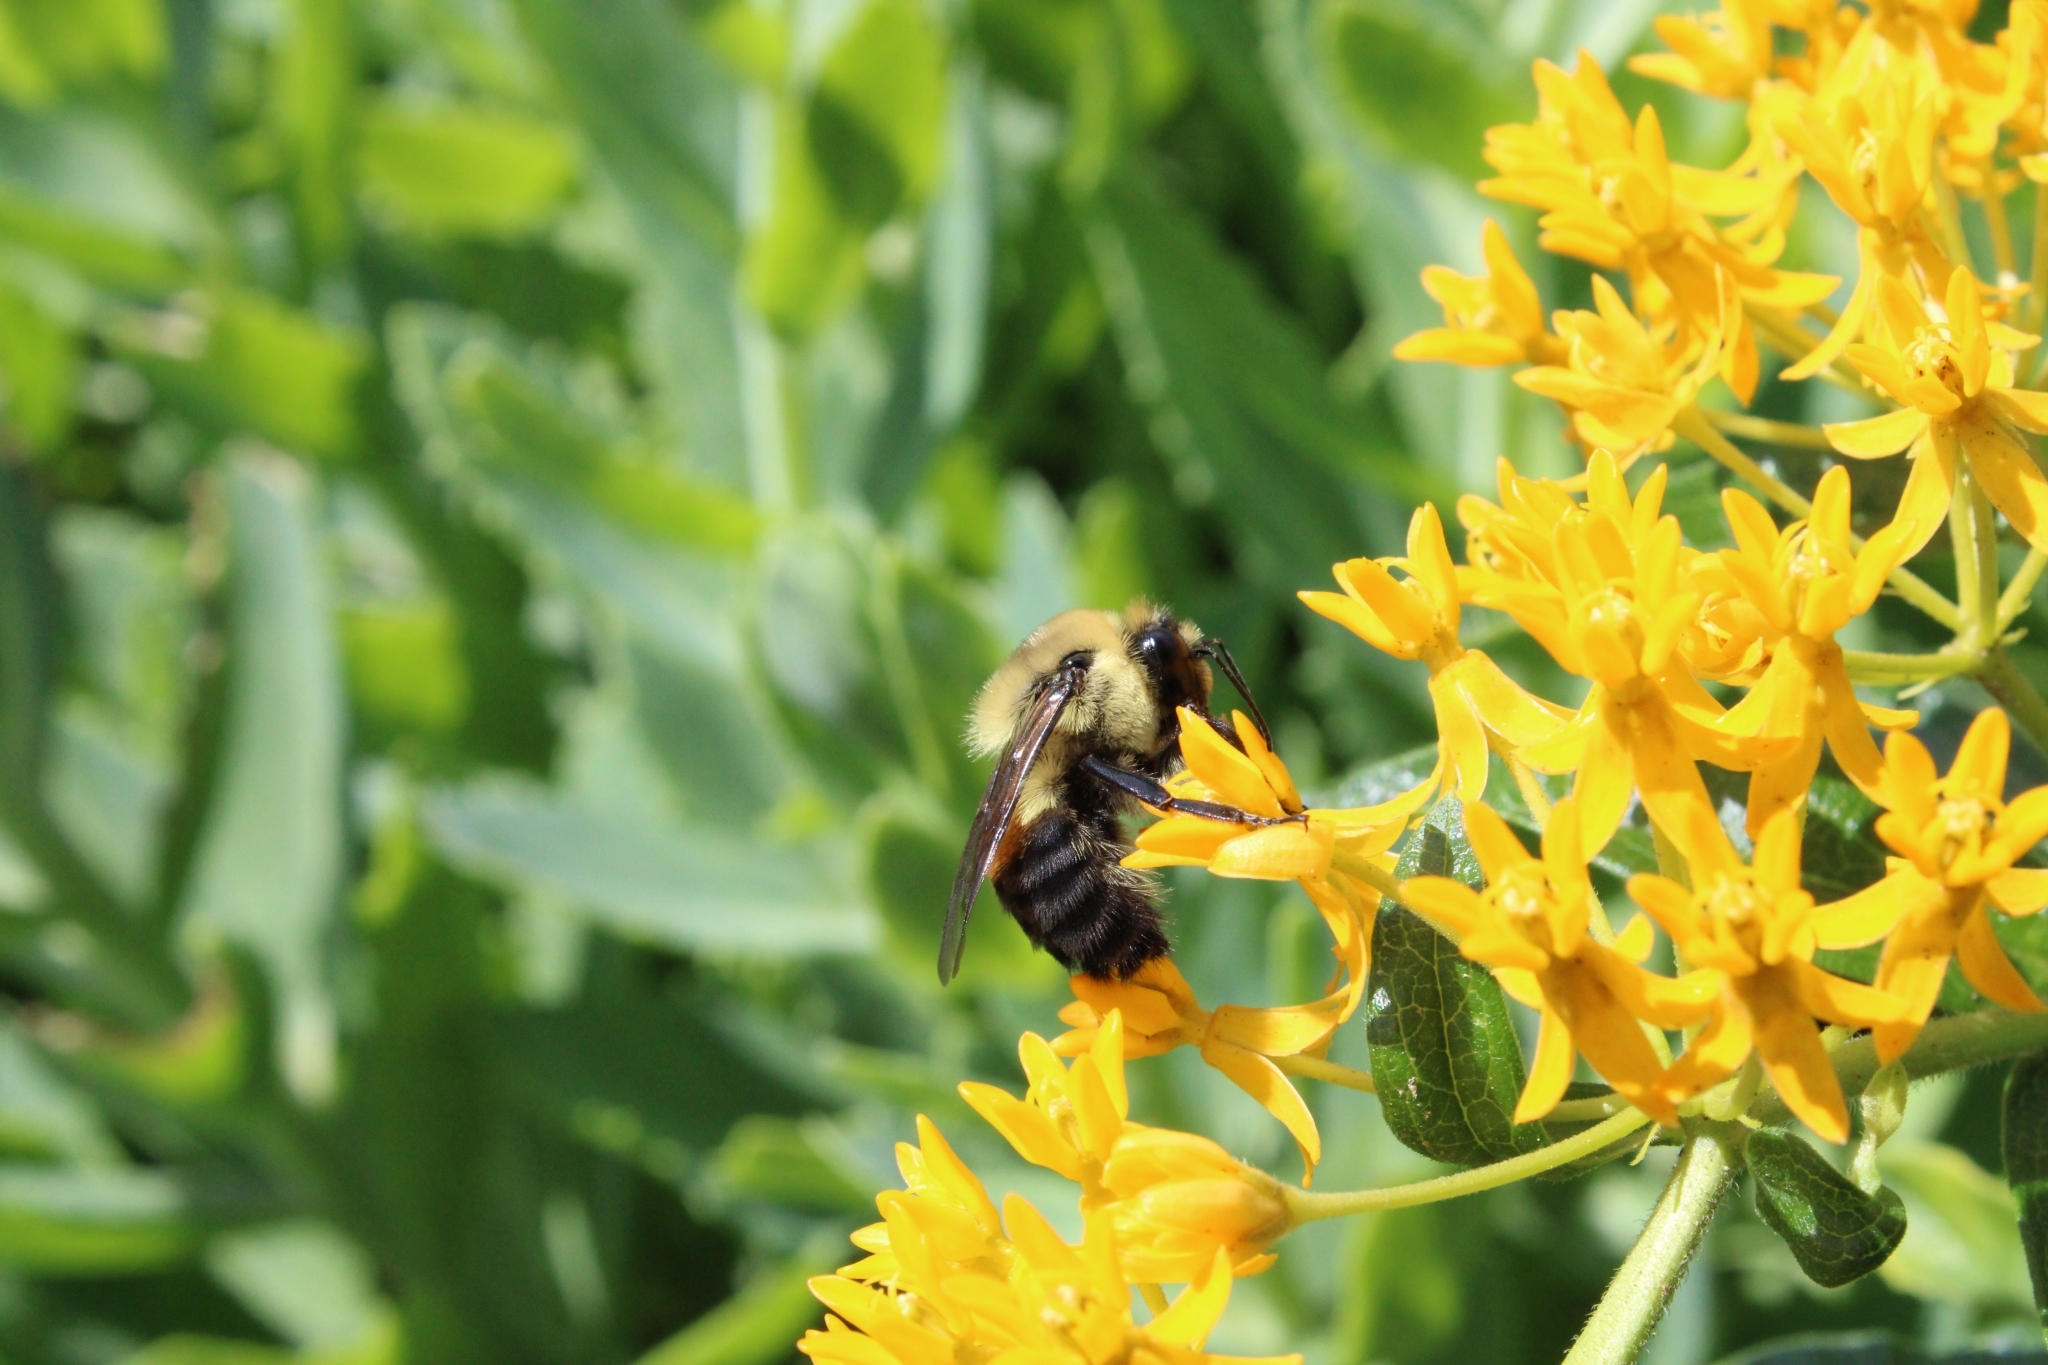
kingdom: Animalia
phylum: Arthropoda
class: Insecta
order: Hymenoptera
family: Apidae
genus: Bombus
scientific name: Bombus griseocollis
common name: Brown-belted bumble bee
